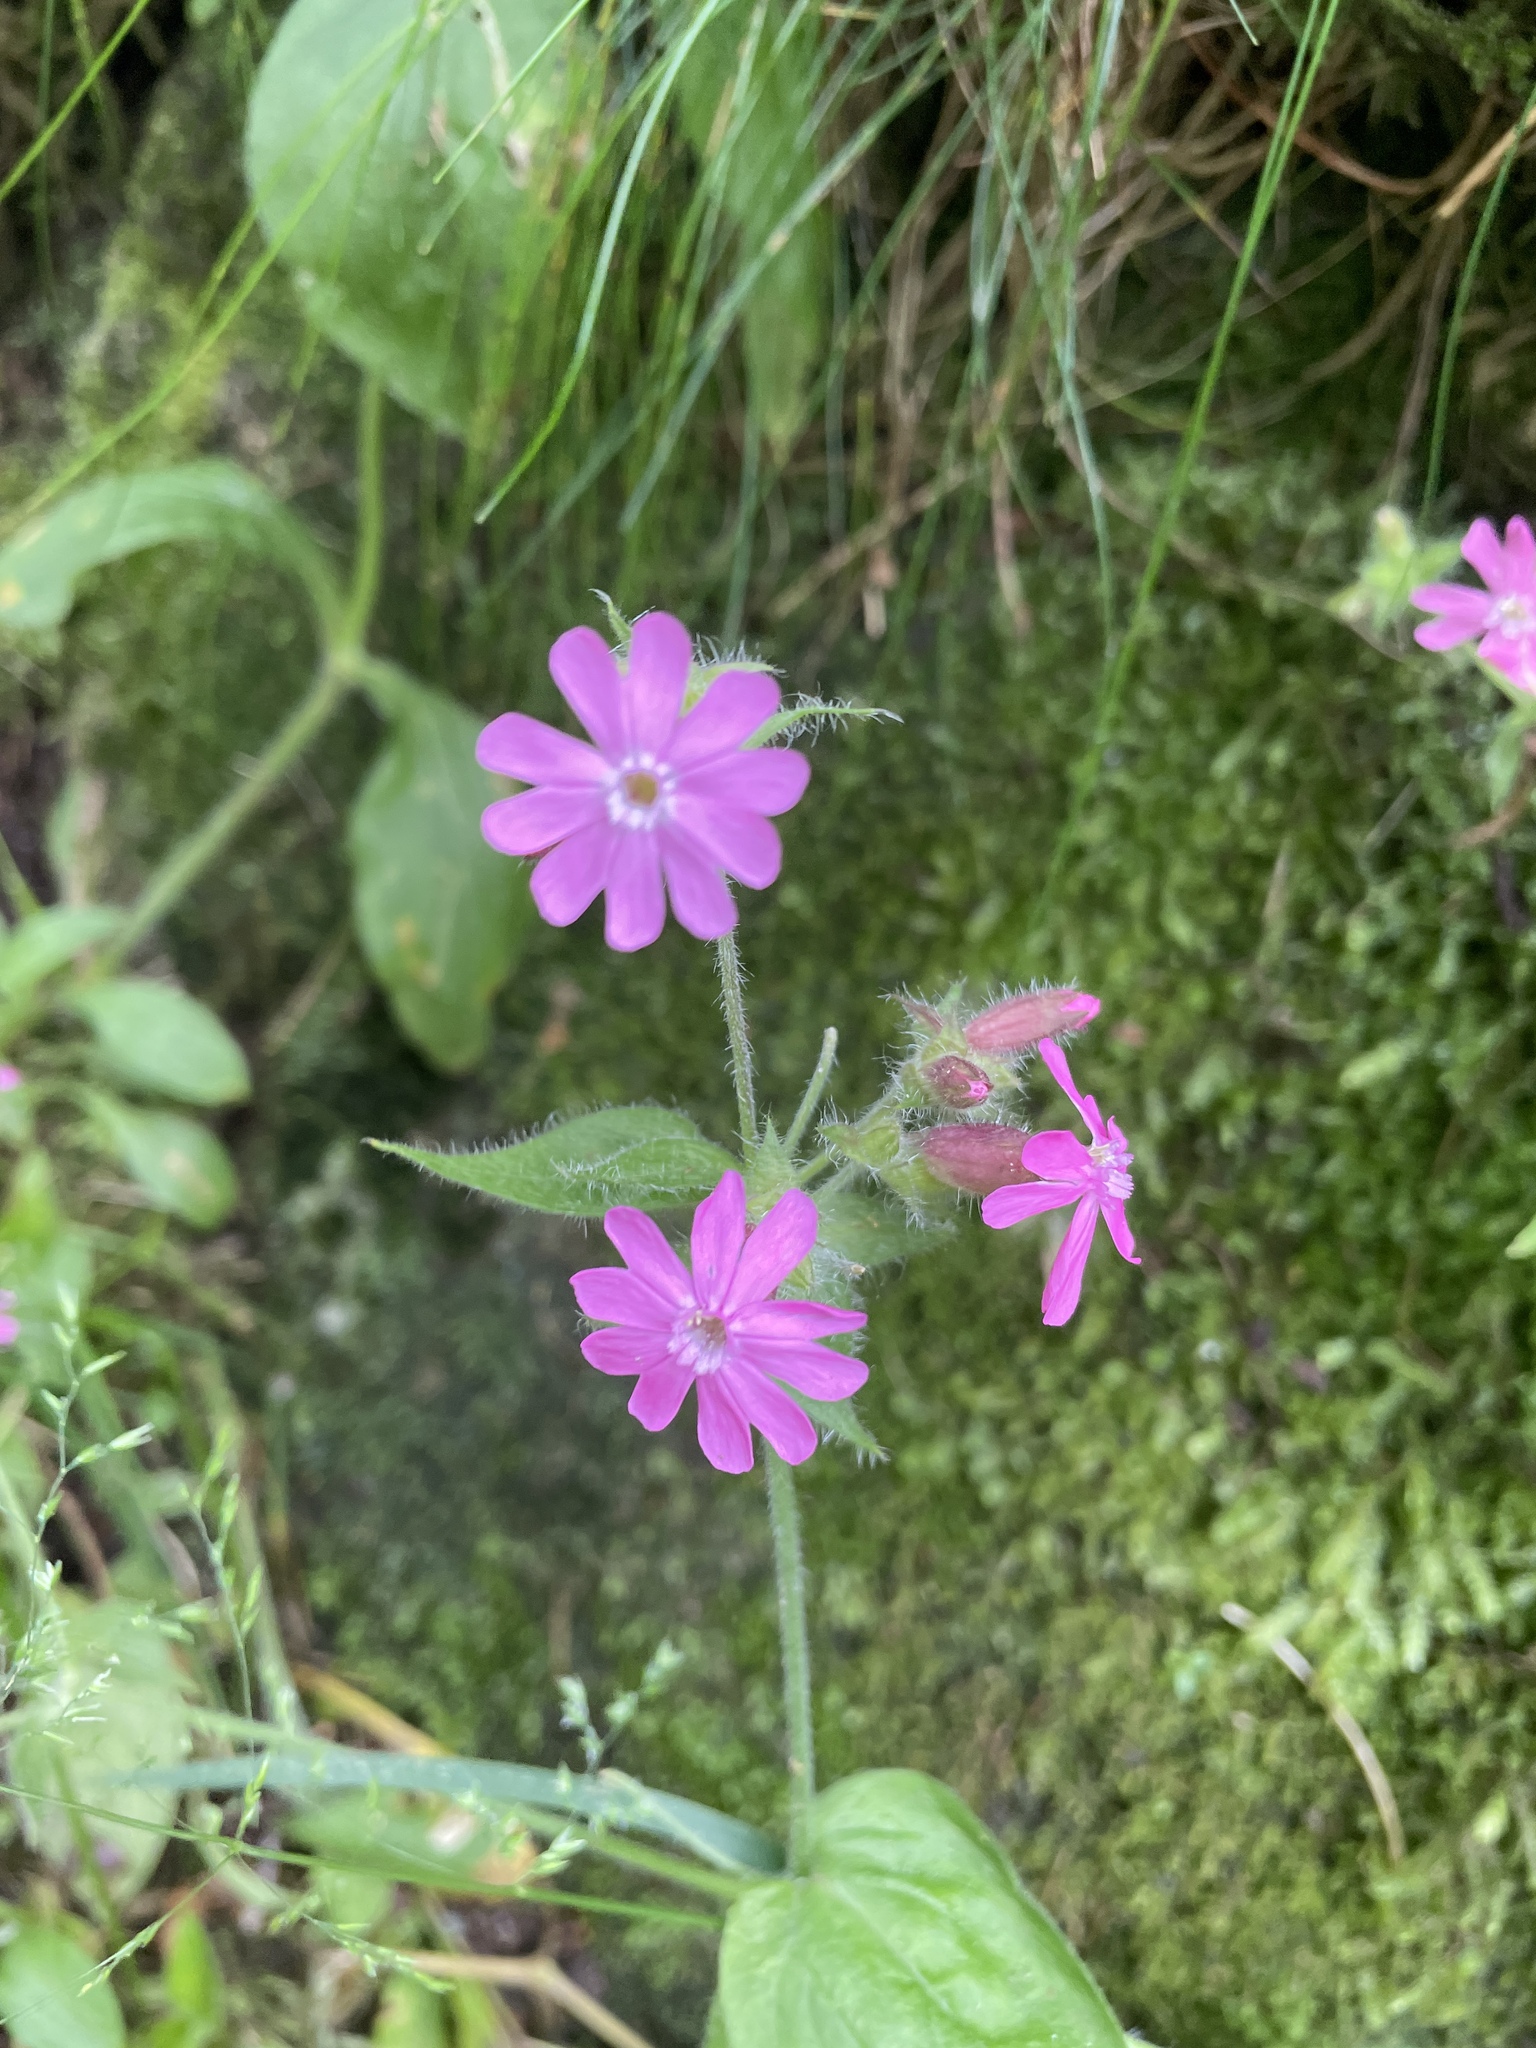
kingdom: Plantae
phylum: Tracheophyta
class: Magnoliopsida
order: Caryophyllales
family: Caryophyllaceae
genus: Silene
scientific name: Silene dioica
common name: Red campion
